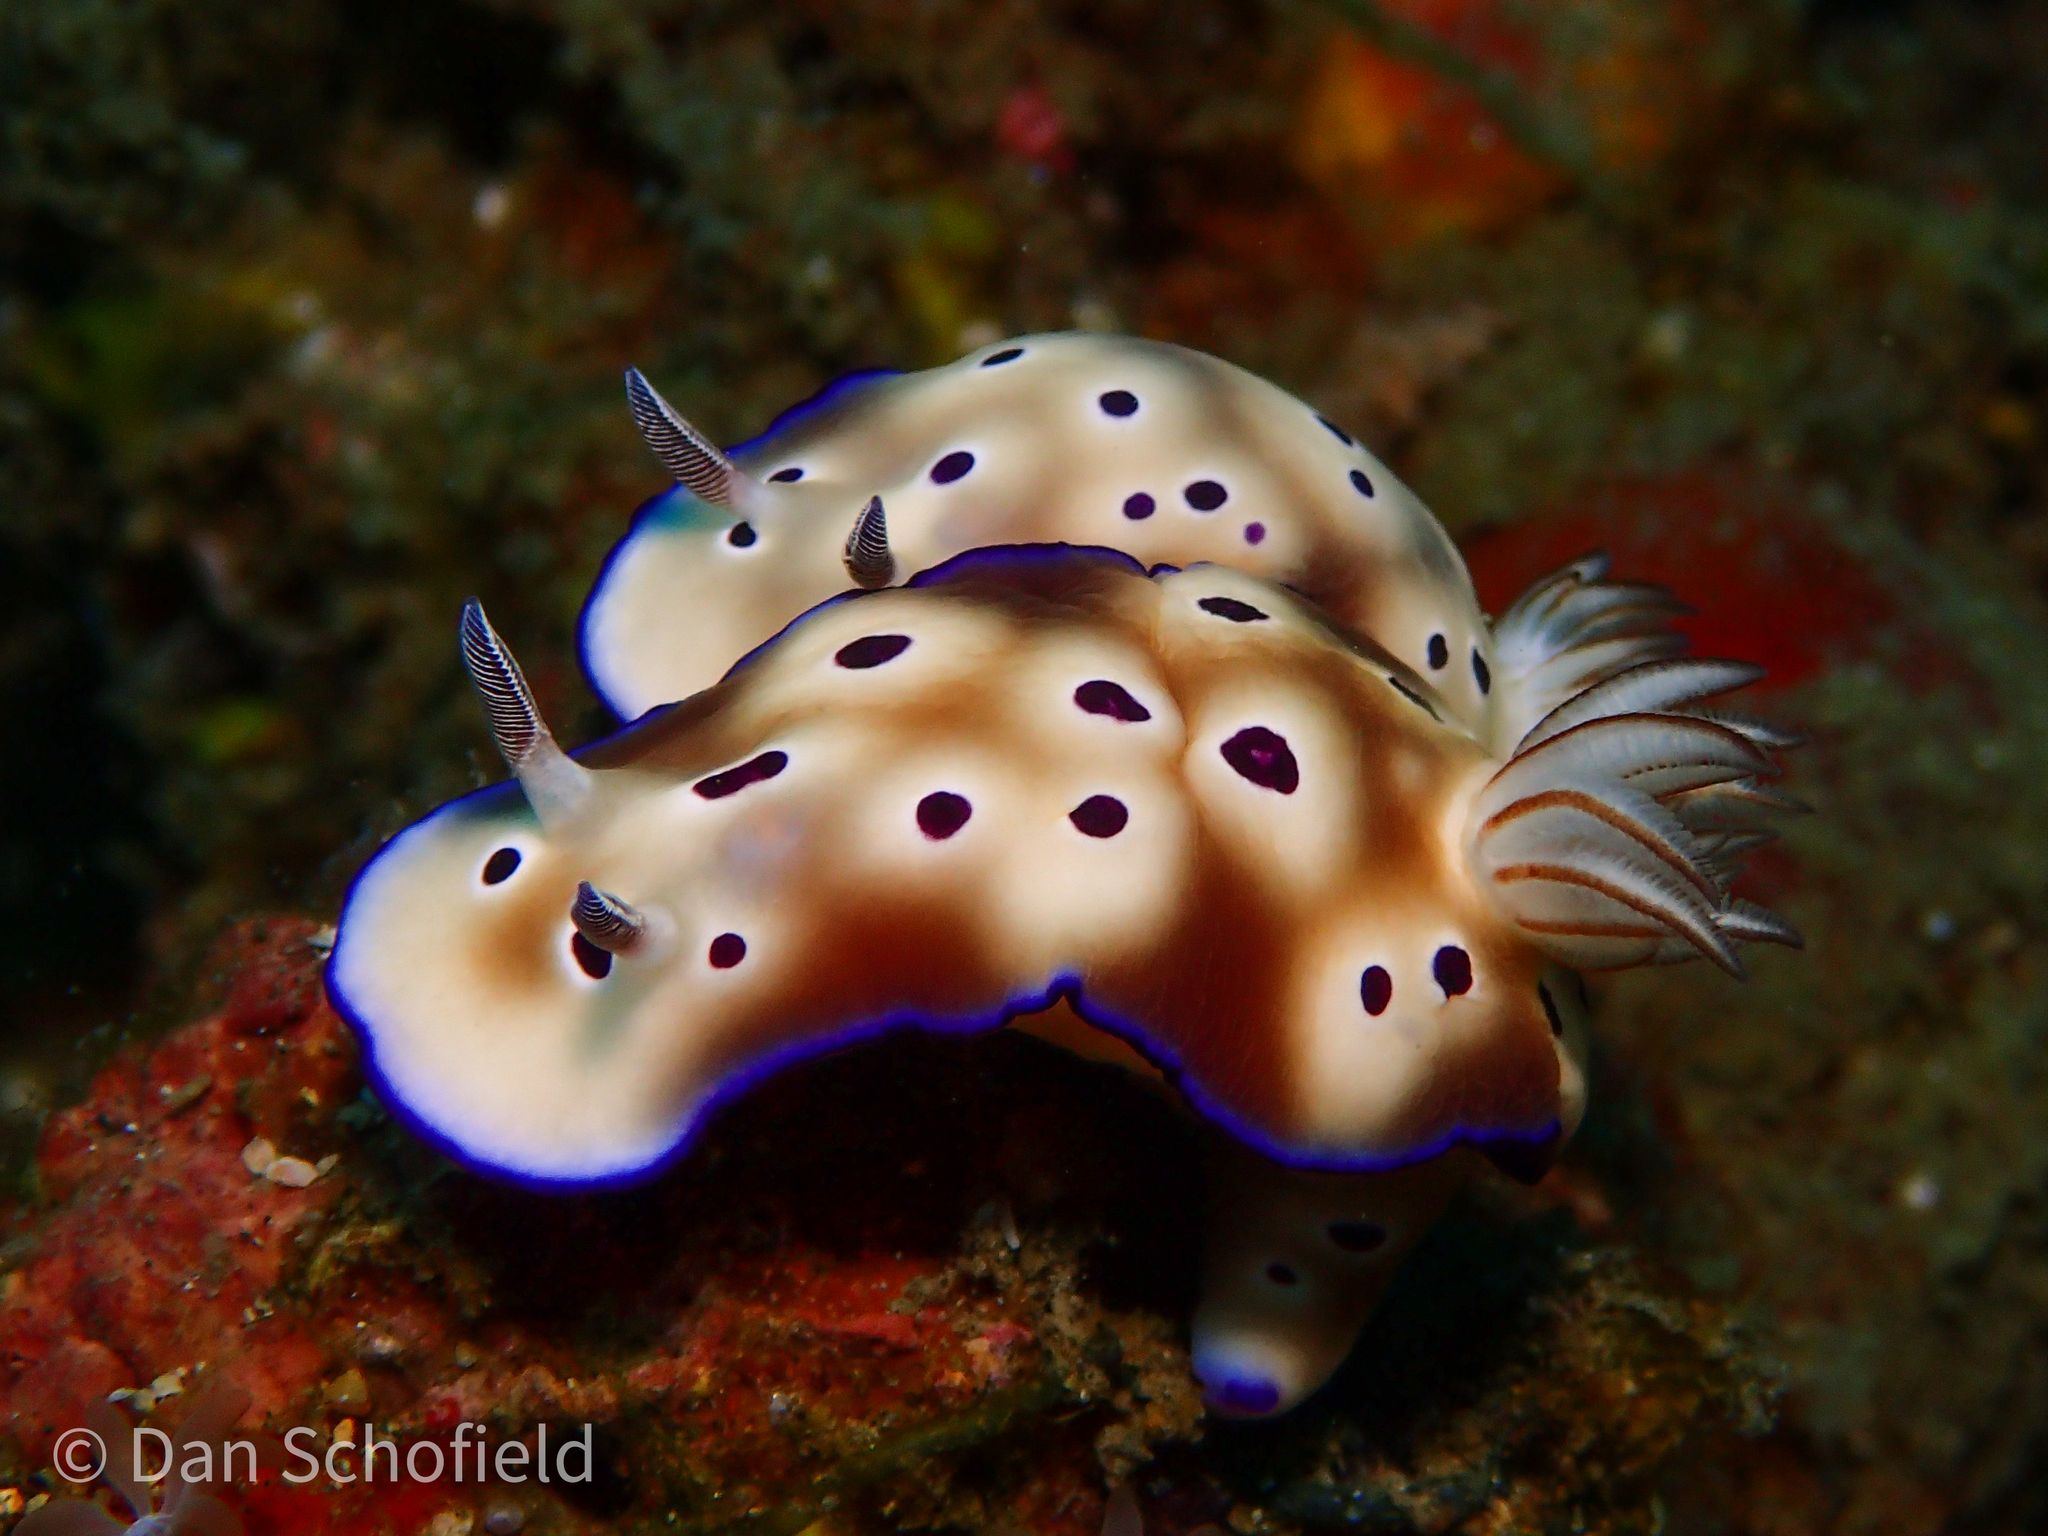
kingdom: Animalia
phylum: Mollusca
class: Gastropoda
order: Nudibranchia
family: Chromodorididae
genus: Hypselodoris
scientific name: Hypselodoris tryoni
